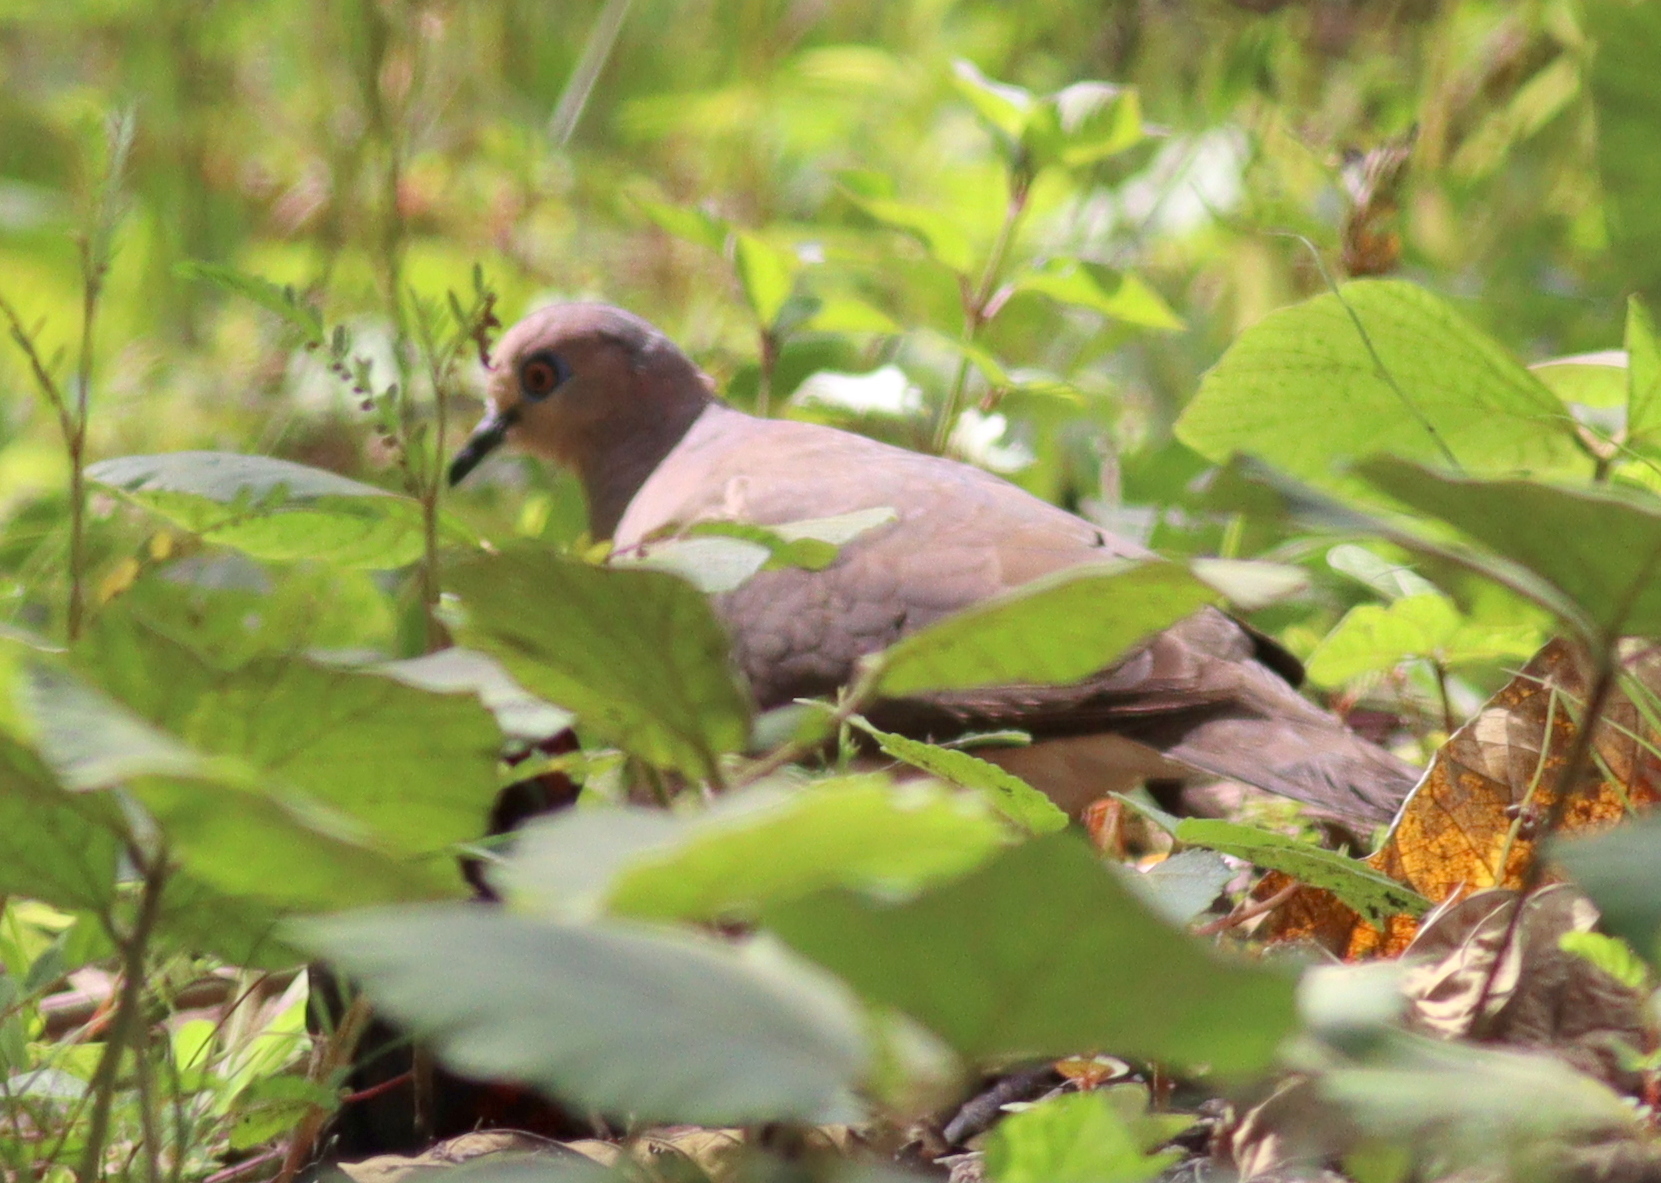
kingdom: Animalia
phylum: Chordata
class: Aves
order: Columbiformes
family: Columbidae
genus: Leptotila
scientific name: Leptotila verreauxi
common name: White-tipped dove
